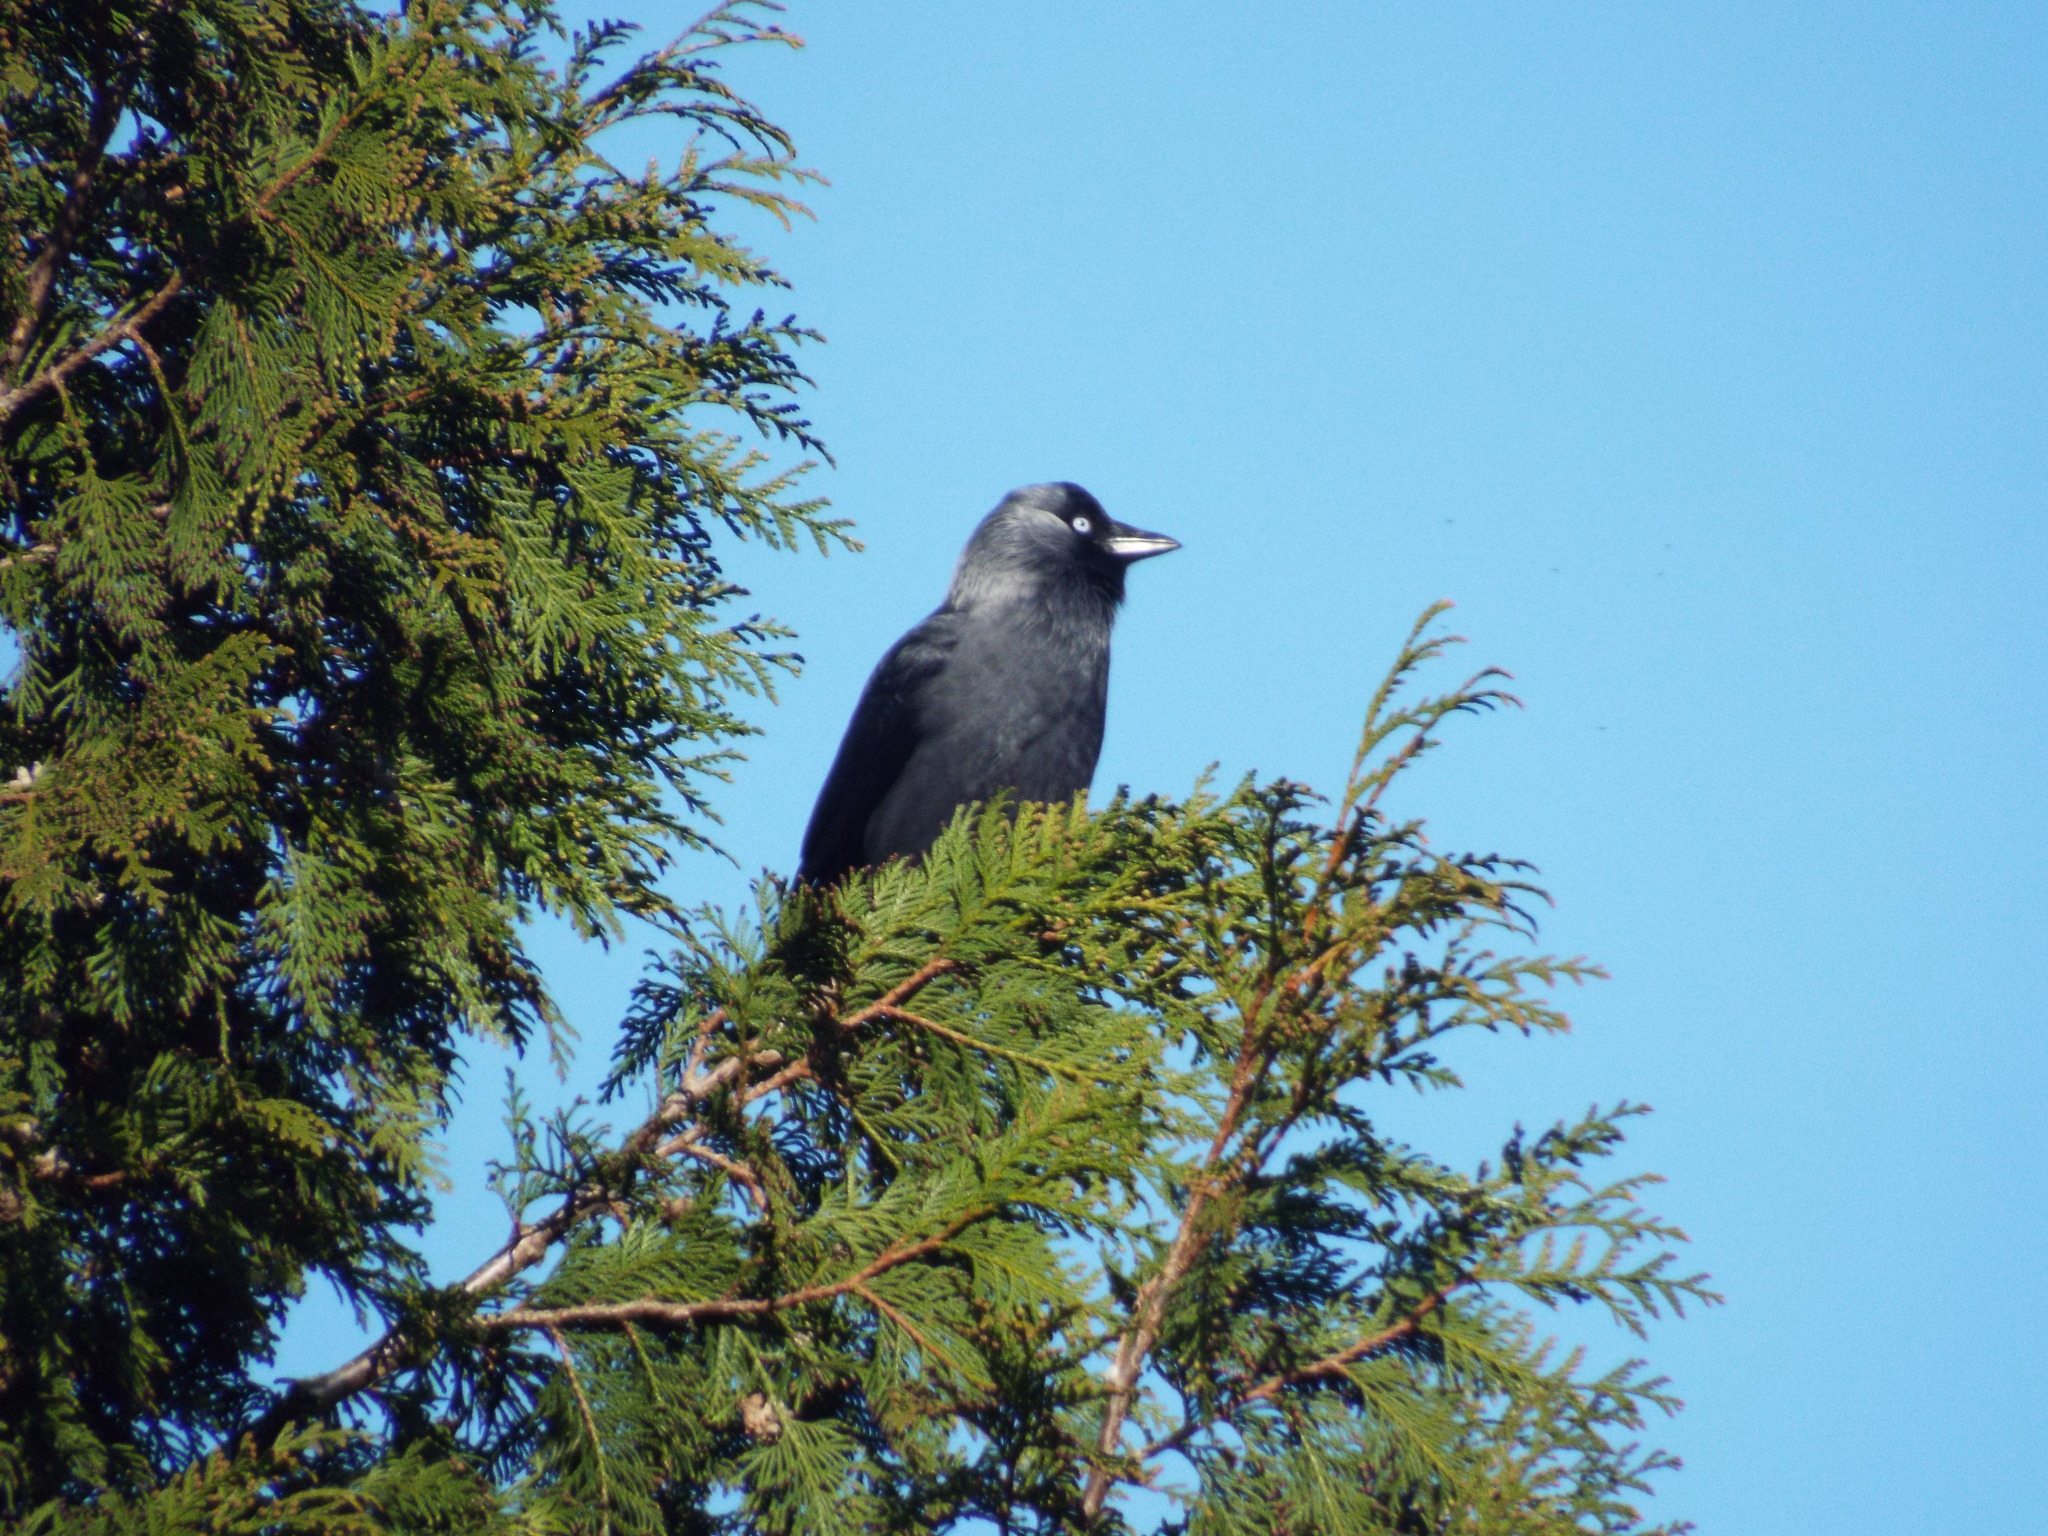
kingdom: Animalia
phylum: Chordata
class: Aves
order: Passeriformes
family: Corvidae
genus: Coloeus
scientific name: Coloeus monedula
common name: Western jackdaw
